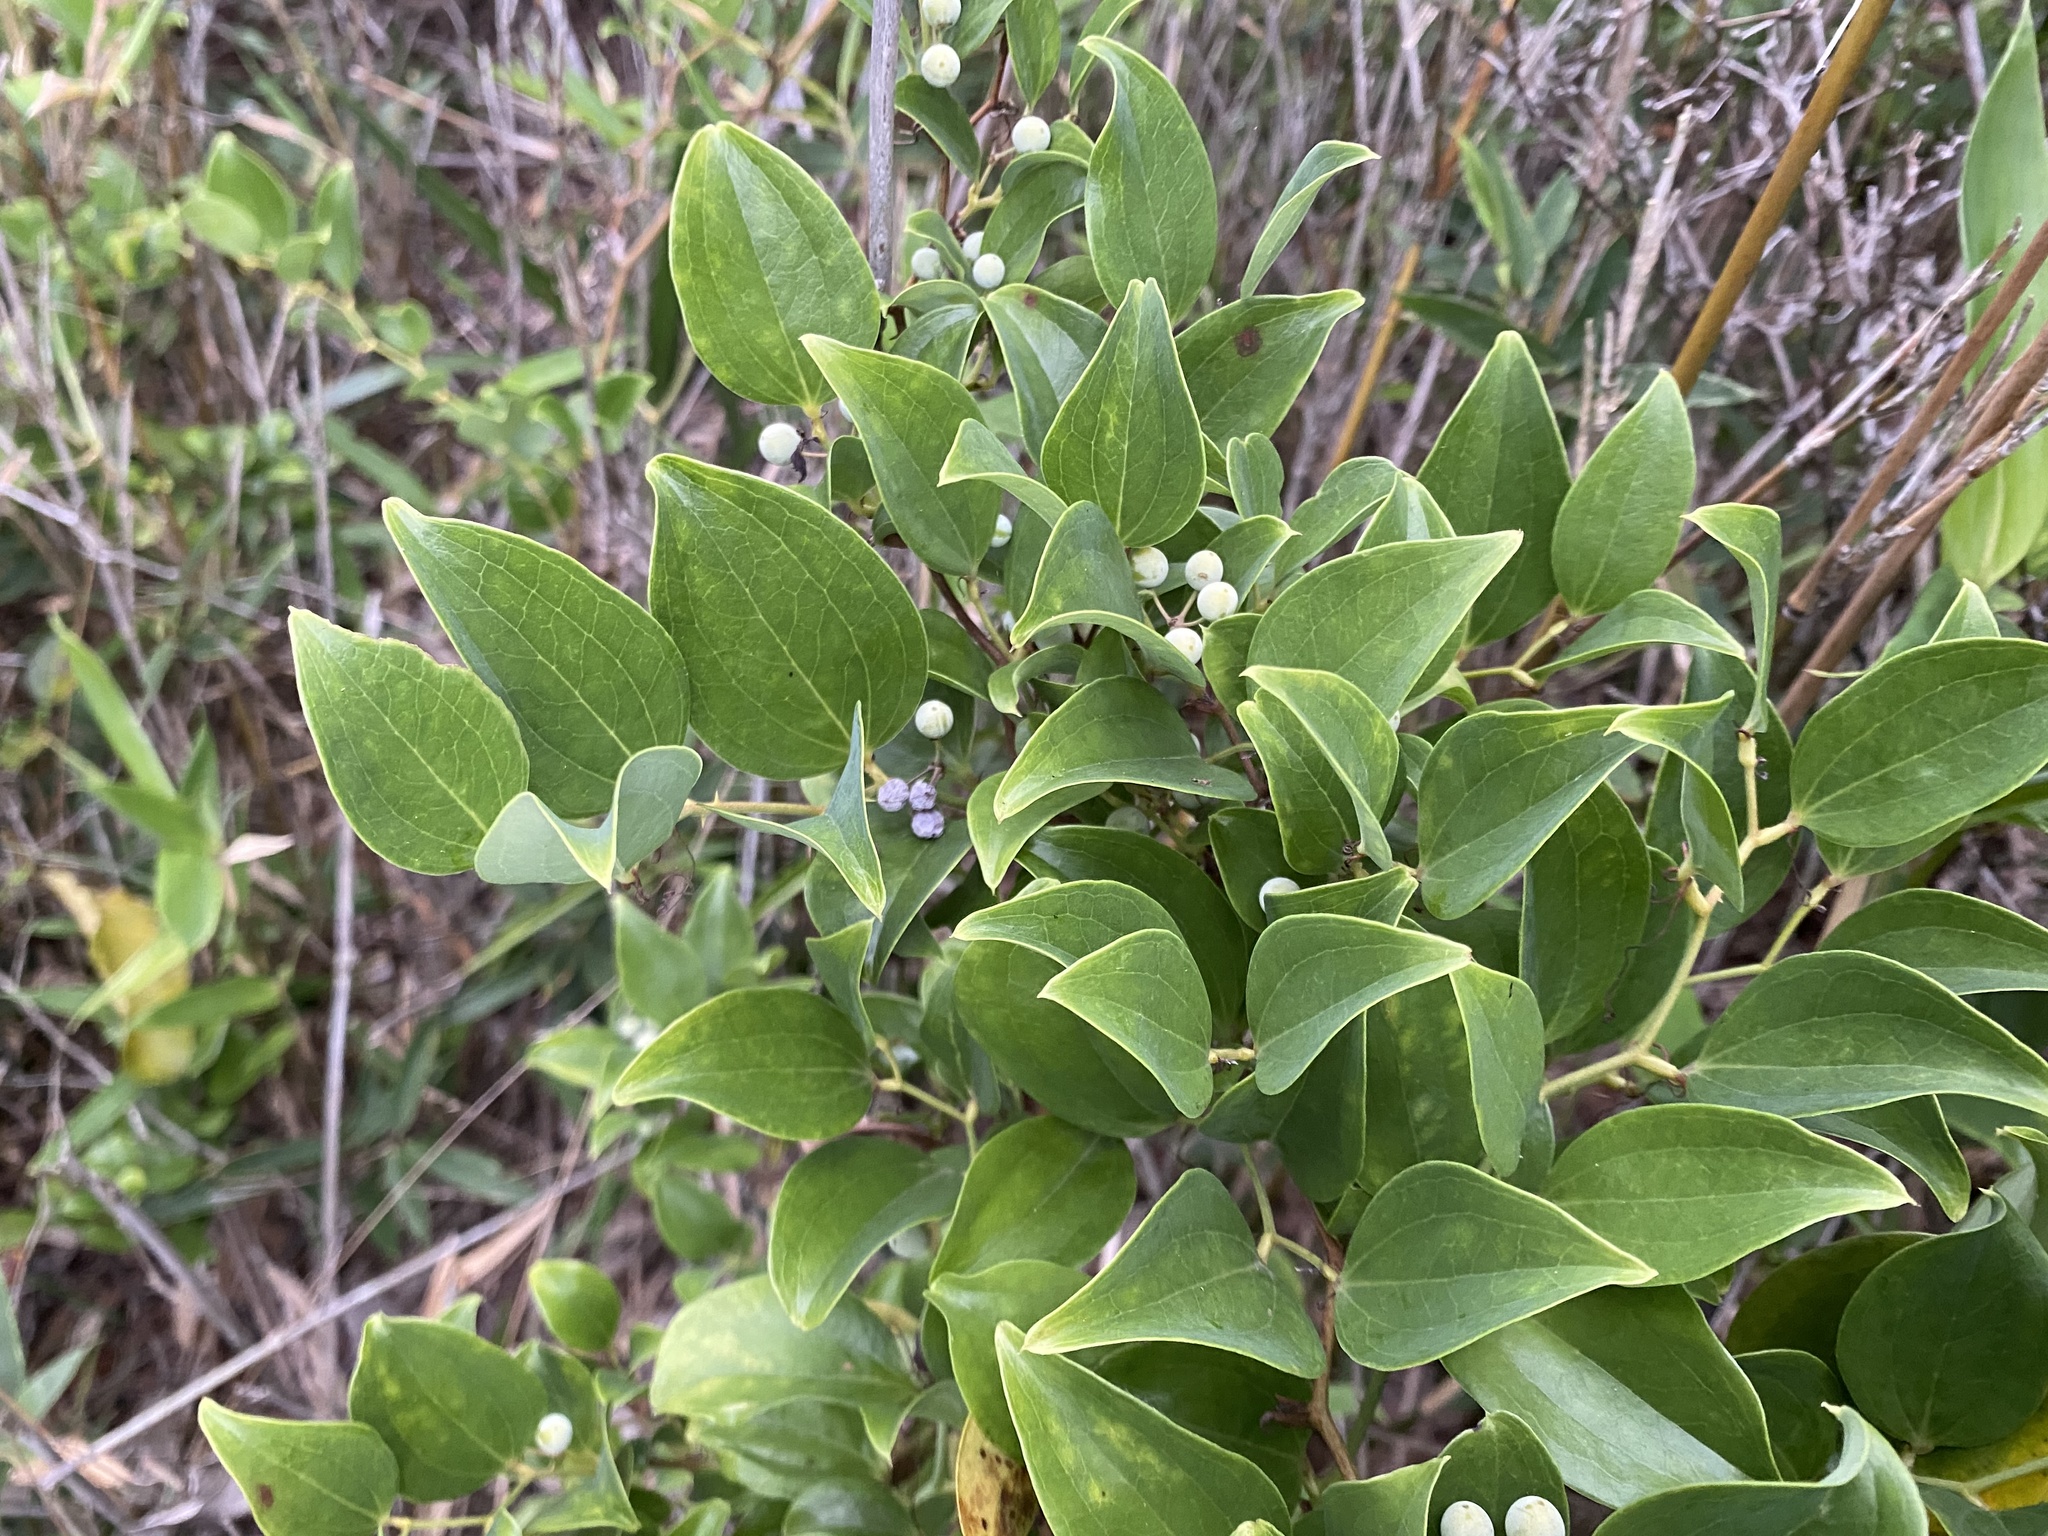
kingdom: Plantae
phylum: Tracheophyta
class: Liliopsida
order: Liliales
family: Smilacaceae
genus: Smilax
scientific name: Smilax china
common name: Chinaroot
